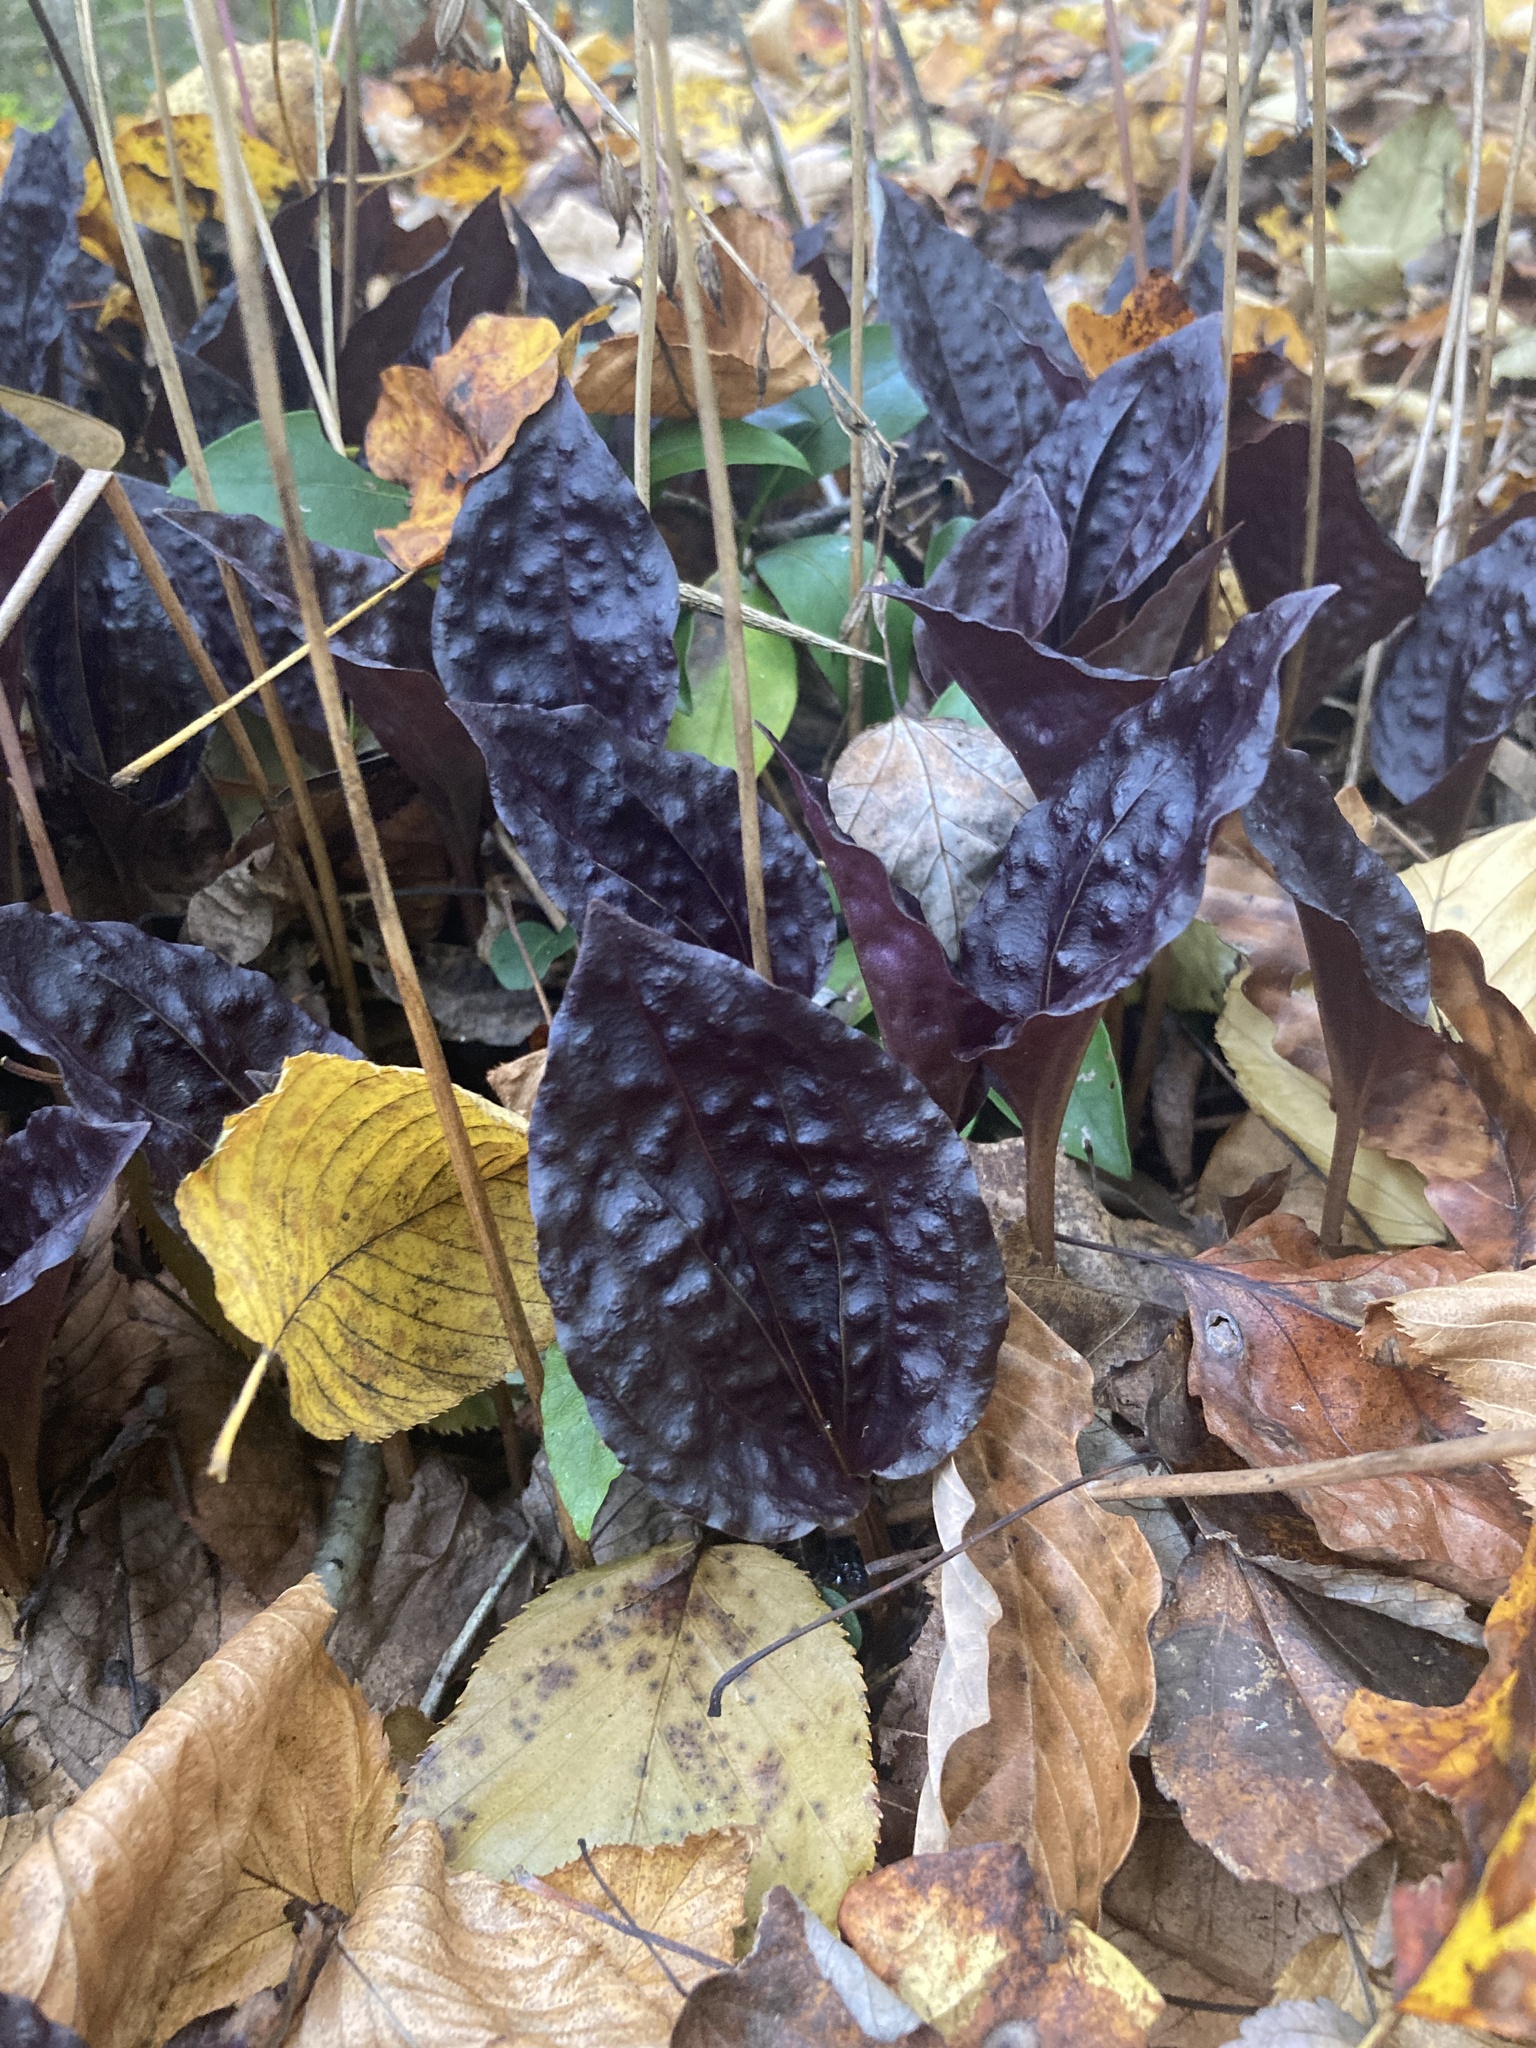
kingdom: Plantae
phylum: Tracheophyta
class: Liliopsida
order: Asparagales
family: Orchidaceae
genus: Tipularia
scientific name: Tipularia discolor
